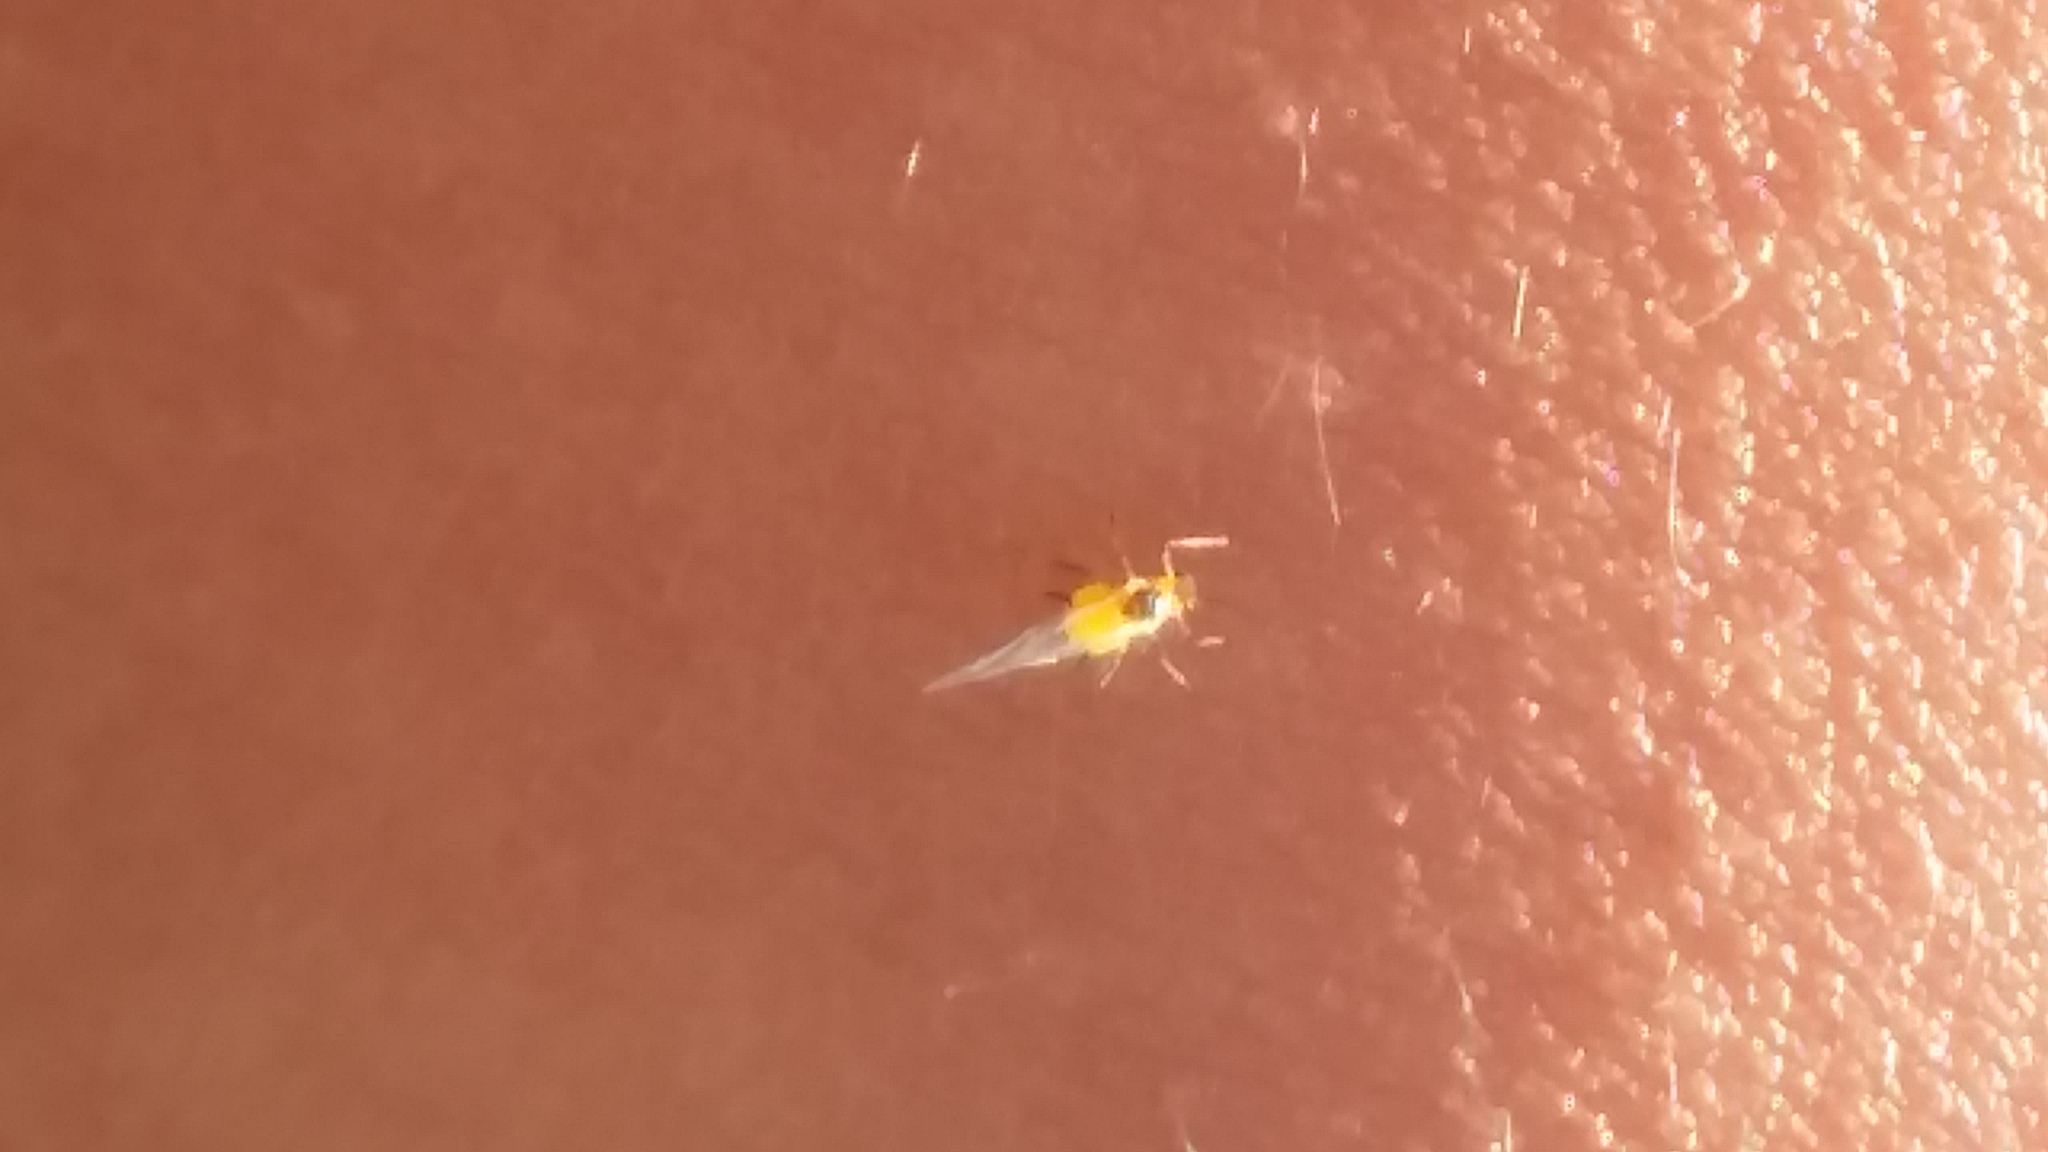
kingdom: Animalia
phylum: Arthropoda
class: Insecta
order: Hemiptera
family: Aphididae
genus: Aphis
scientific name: Aphis nerii
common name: Oleander aphid
